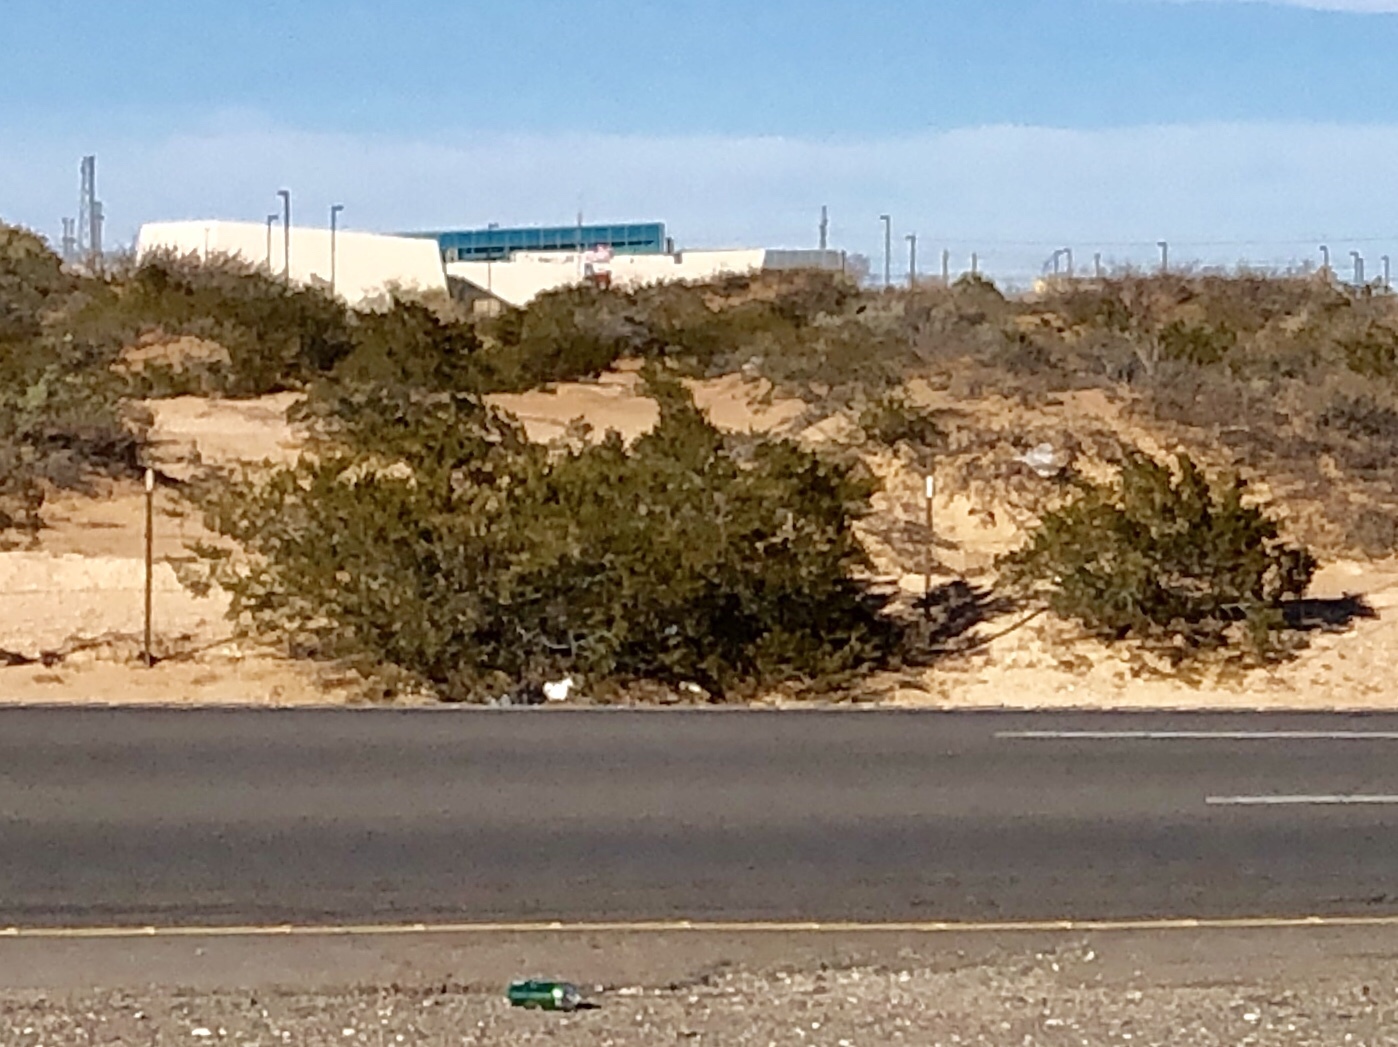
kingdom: Plantae
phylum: Tracheophyta
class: Magnoliopsida
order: Zygophyllales
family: Zygophyllaceae
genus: Larrea
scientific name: Larrea tridentata
